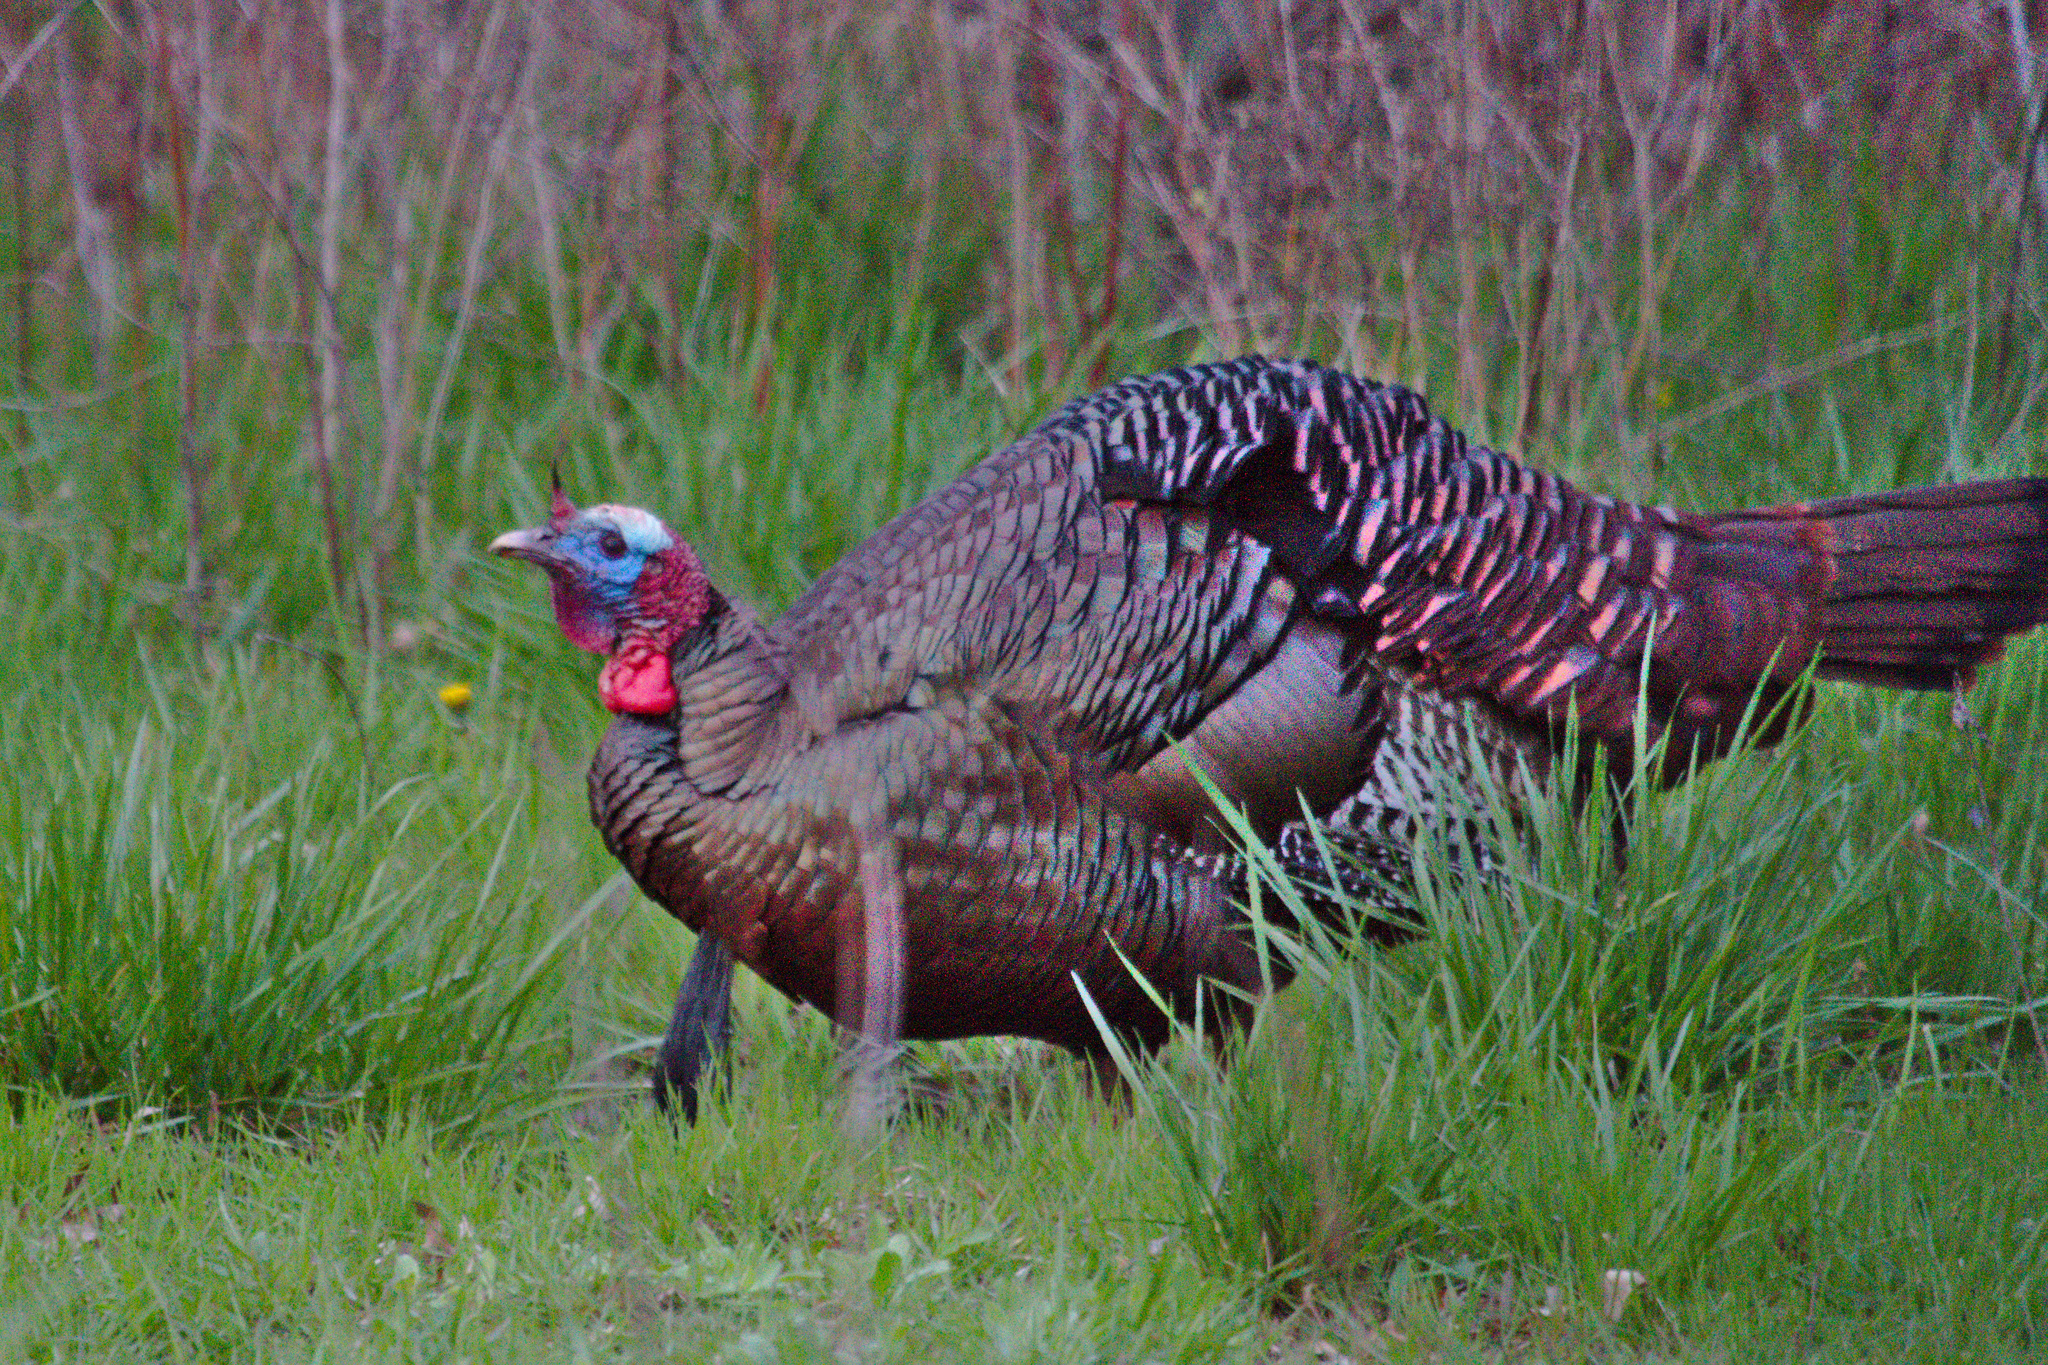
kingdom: Animalia
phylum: Chordata
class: Aves
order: Galliformes
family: Phasianidae
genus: Meleagris
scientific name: Meleagris gallopavo
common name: Wild turkey
